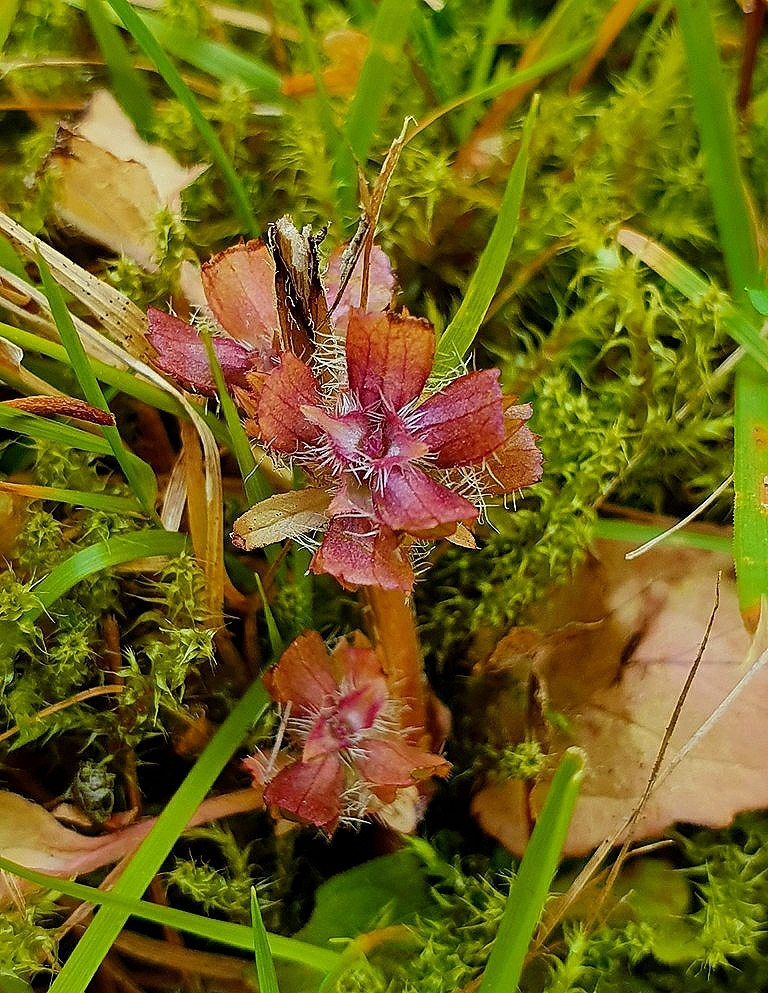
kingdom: Plantae
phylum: Tracheophyta
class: Magnoliopsida
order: Lamiales
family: Lamiaceae
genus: Prunella
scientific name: Prunella vulgaris
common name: Heal-all
